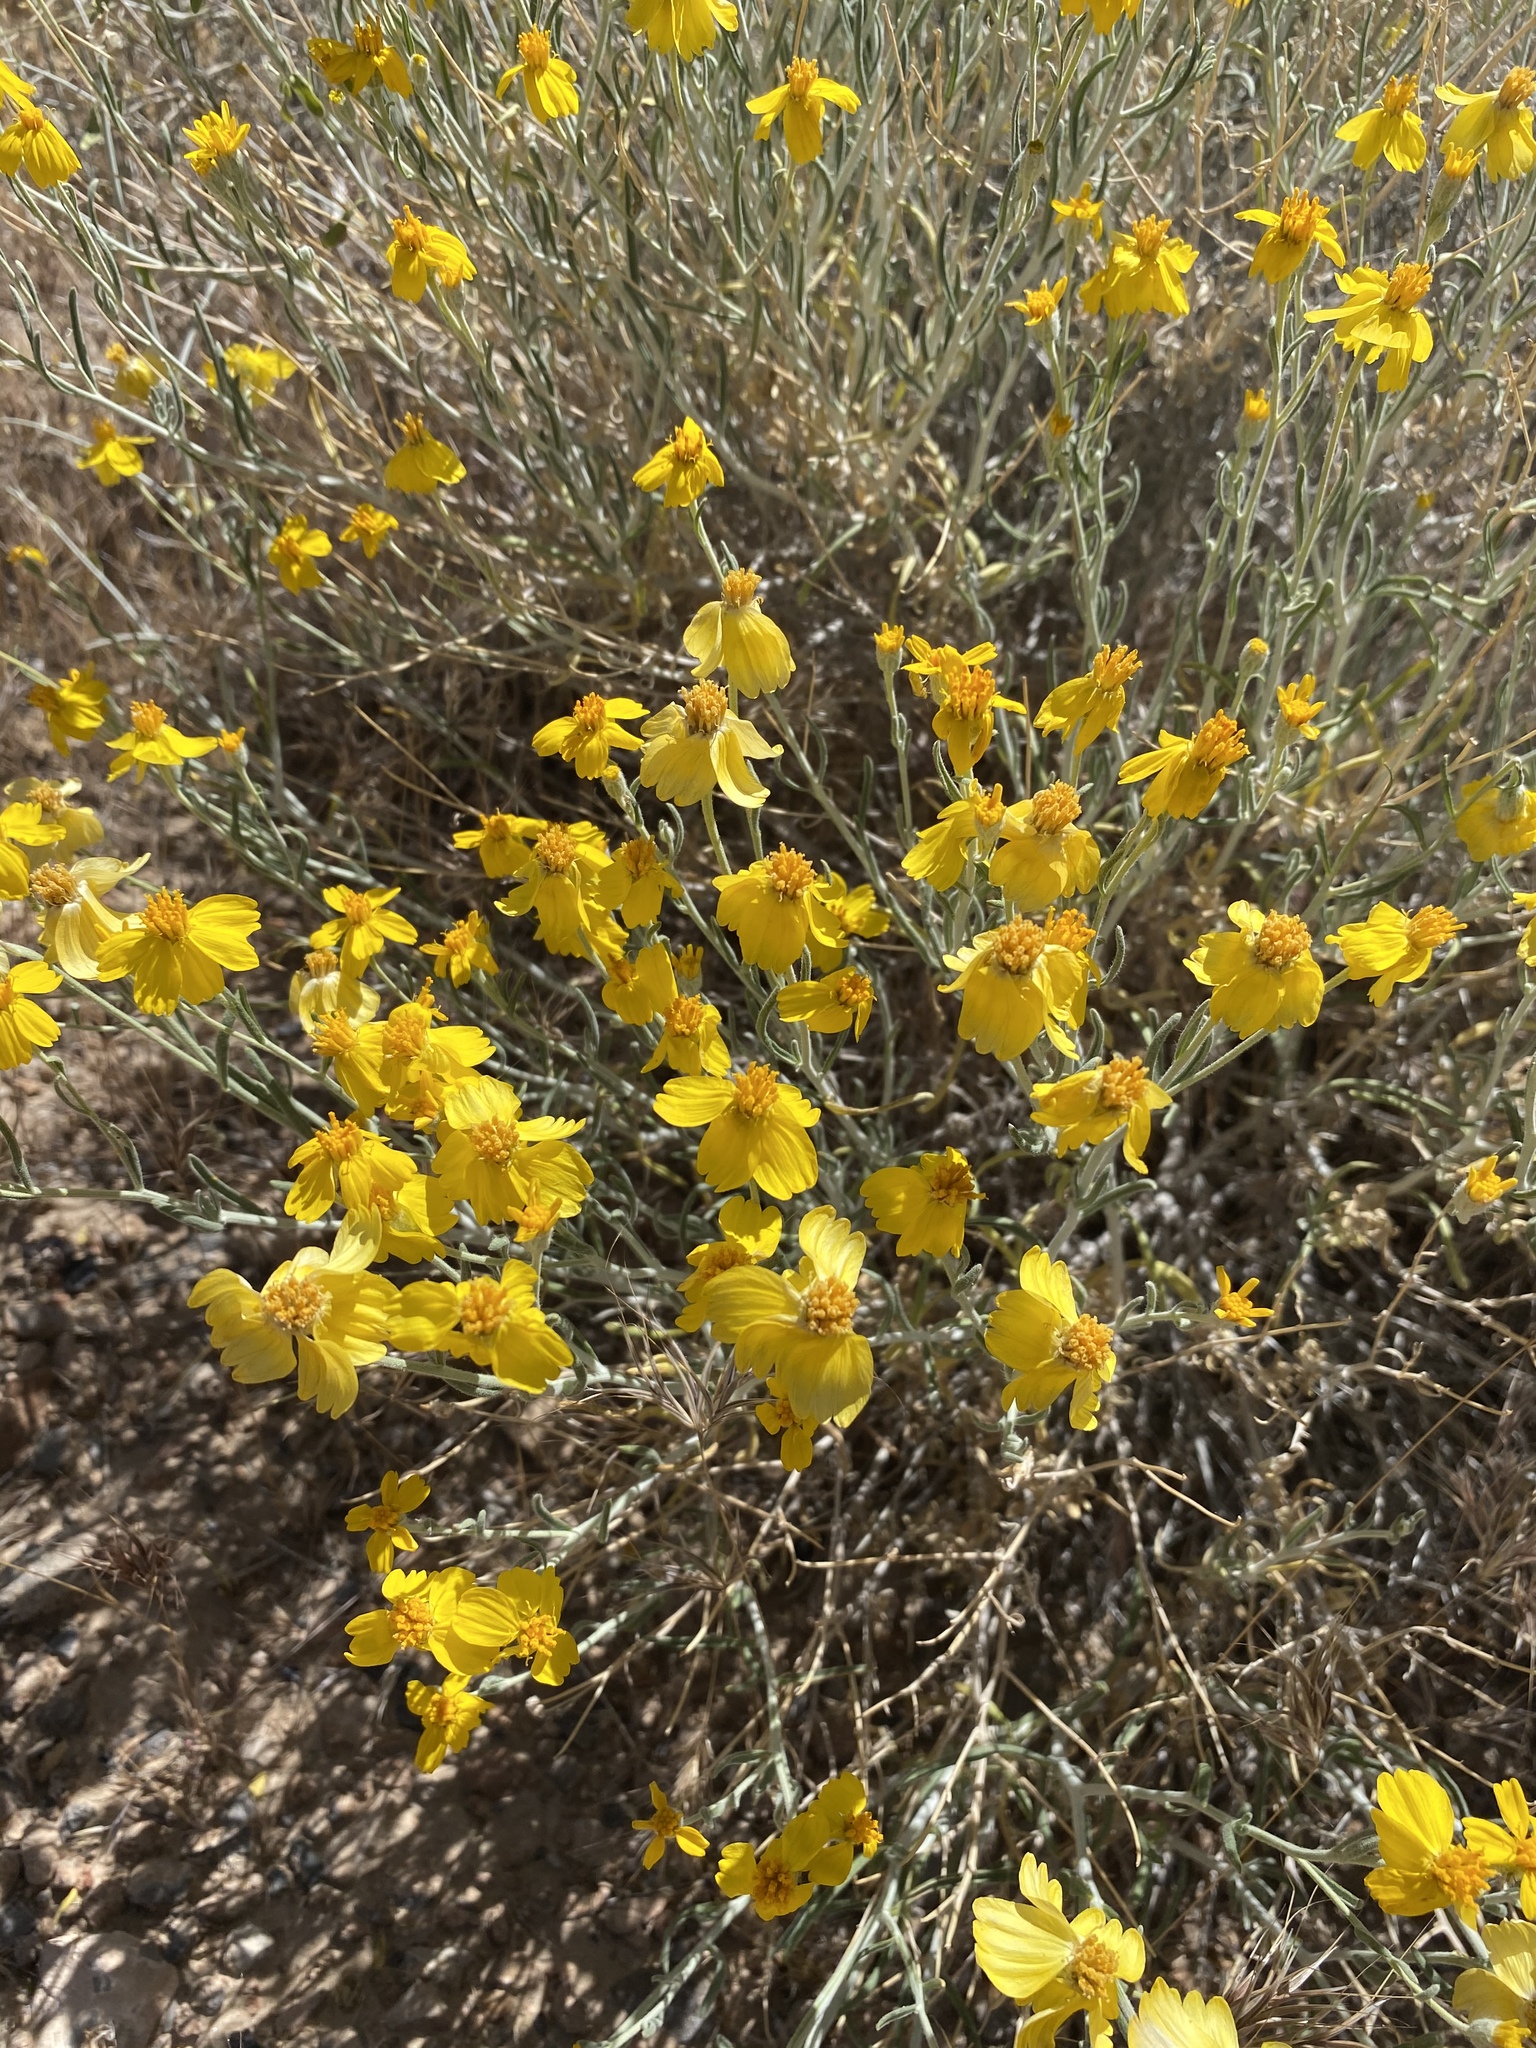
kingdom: Plantae
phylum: Tracheophyta
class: Magnoliopsida
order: Asterales
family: Asteraceae
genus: Psilostrophe
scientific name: Psilostrophe cooperi
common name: White-stem paper-flower
